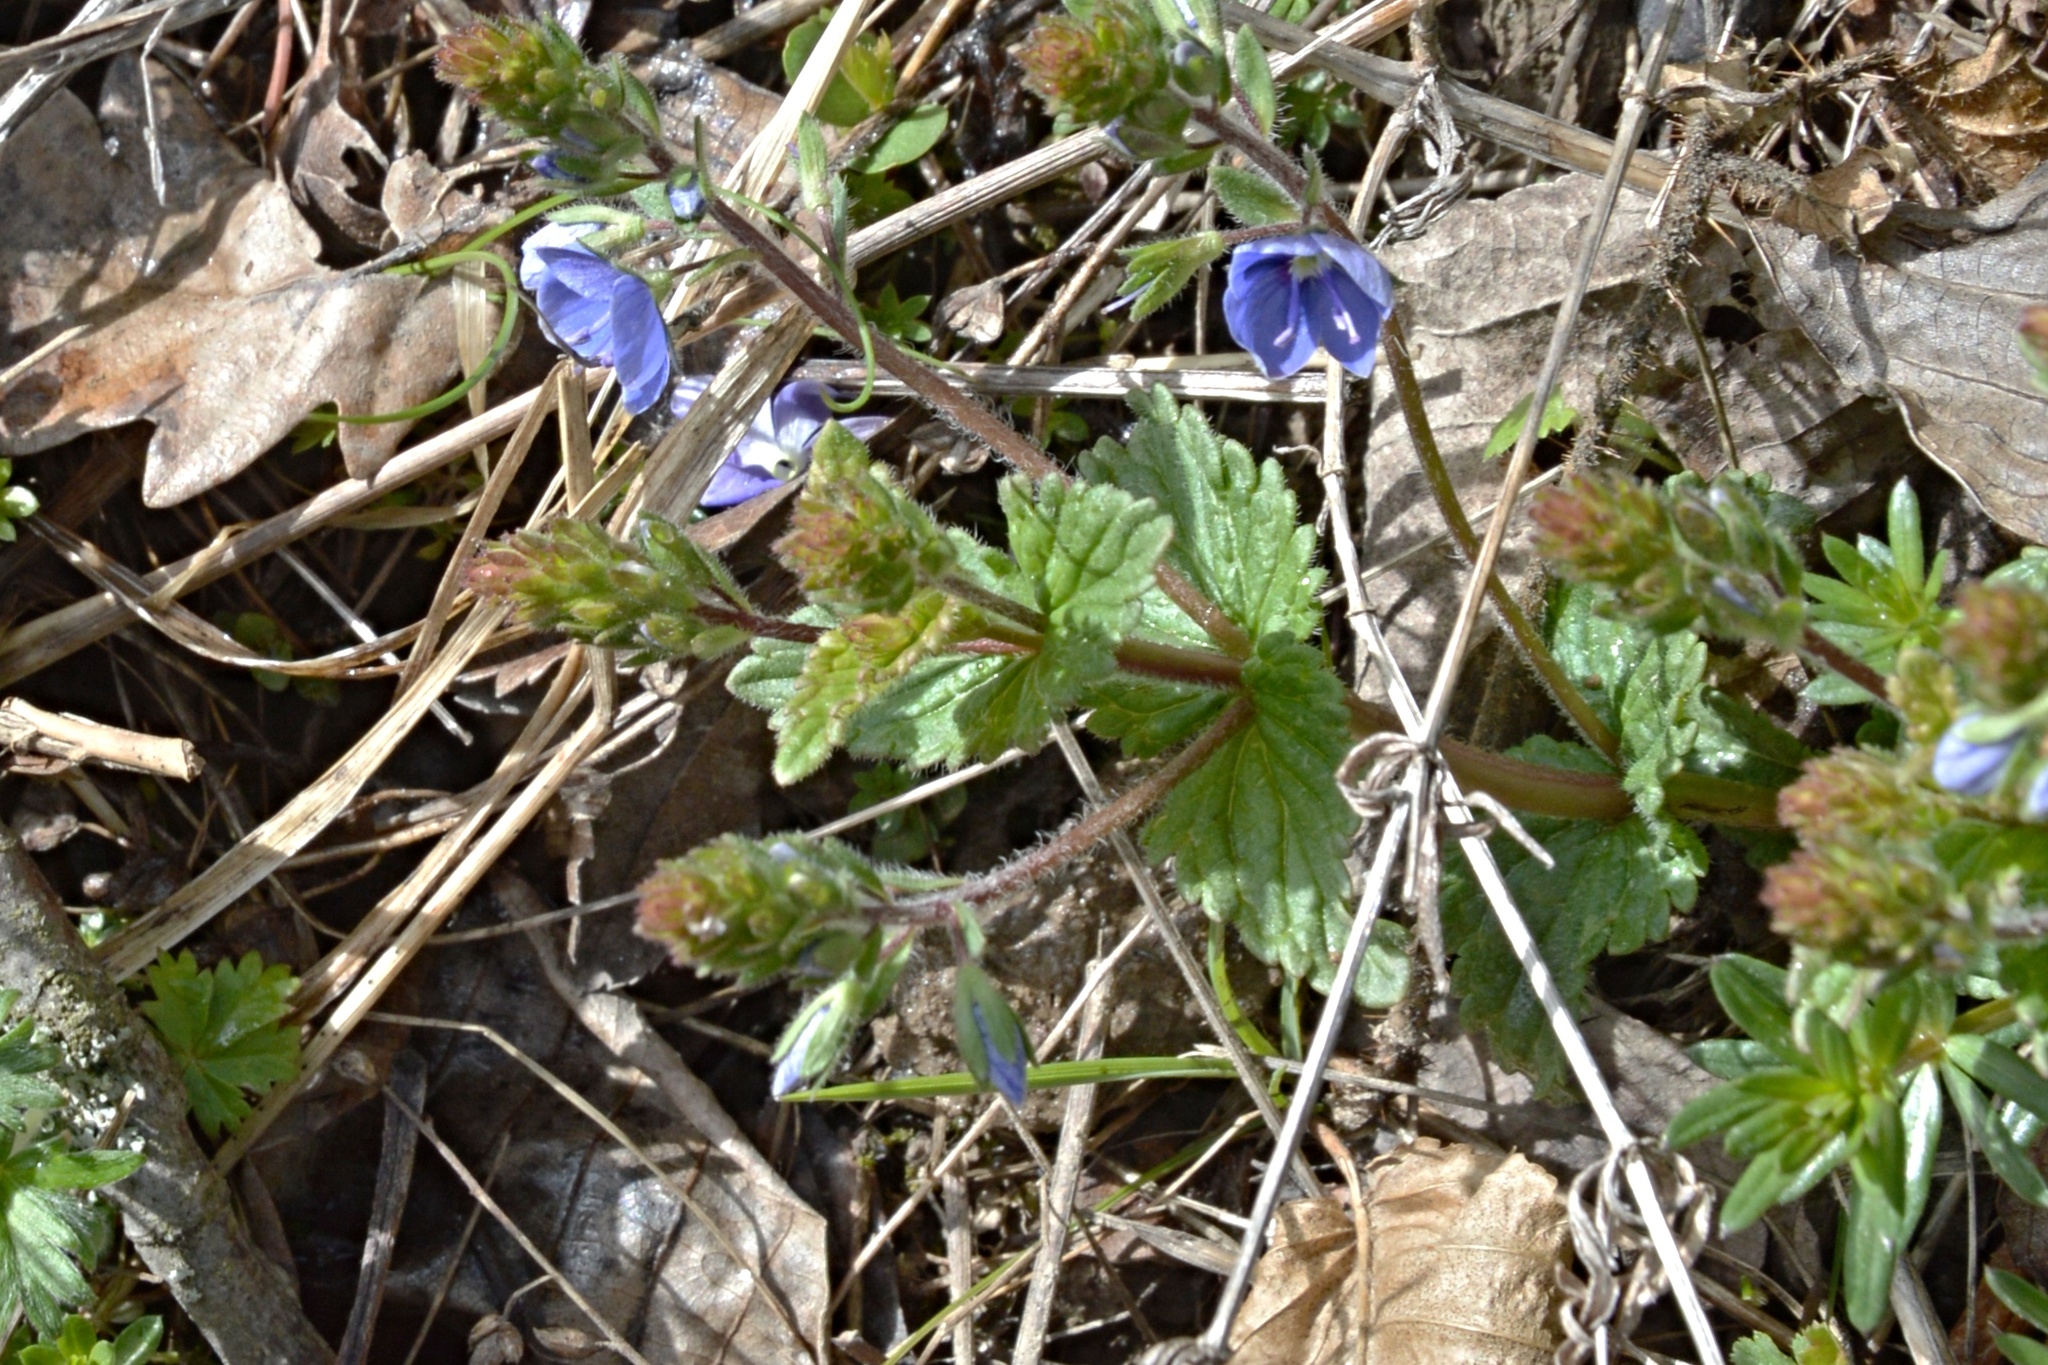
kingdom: Plantae
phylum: Tracheophyta
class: Magnoliopsida
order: Lamiales
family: Plantaginaceae
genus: Veronica
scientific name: Veronica chamaedrys
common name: Germander speedwell
